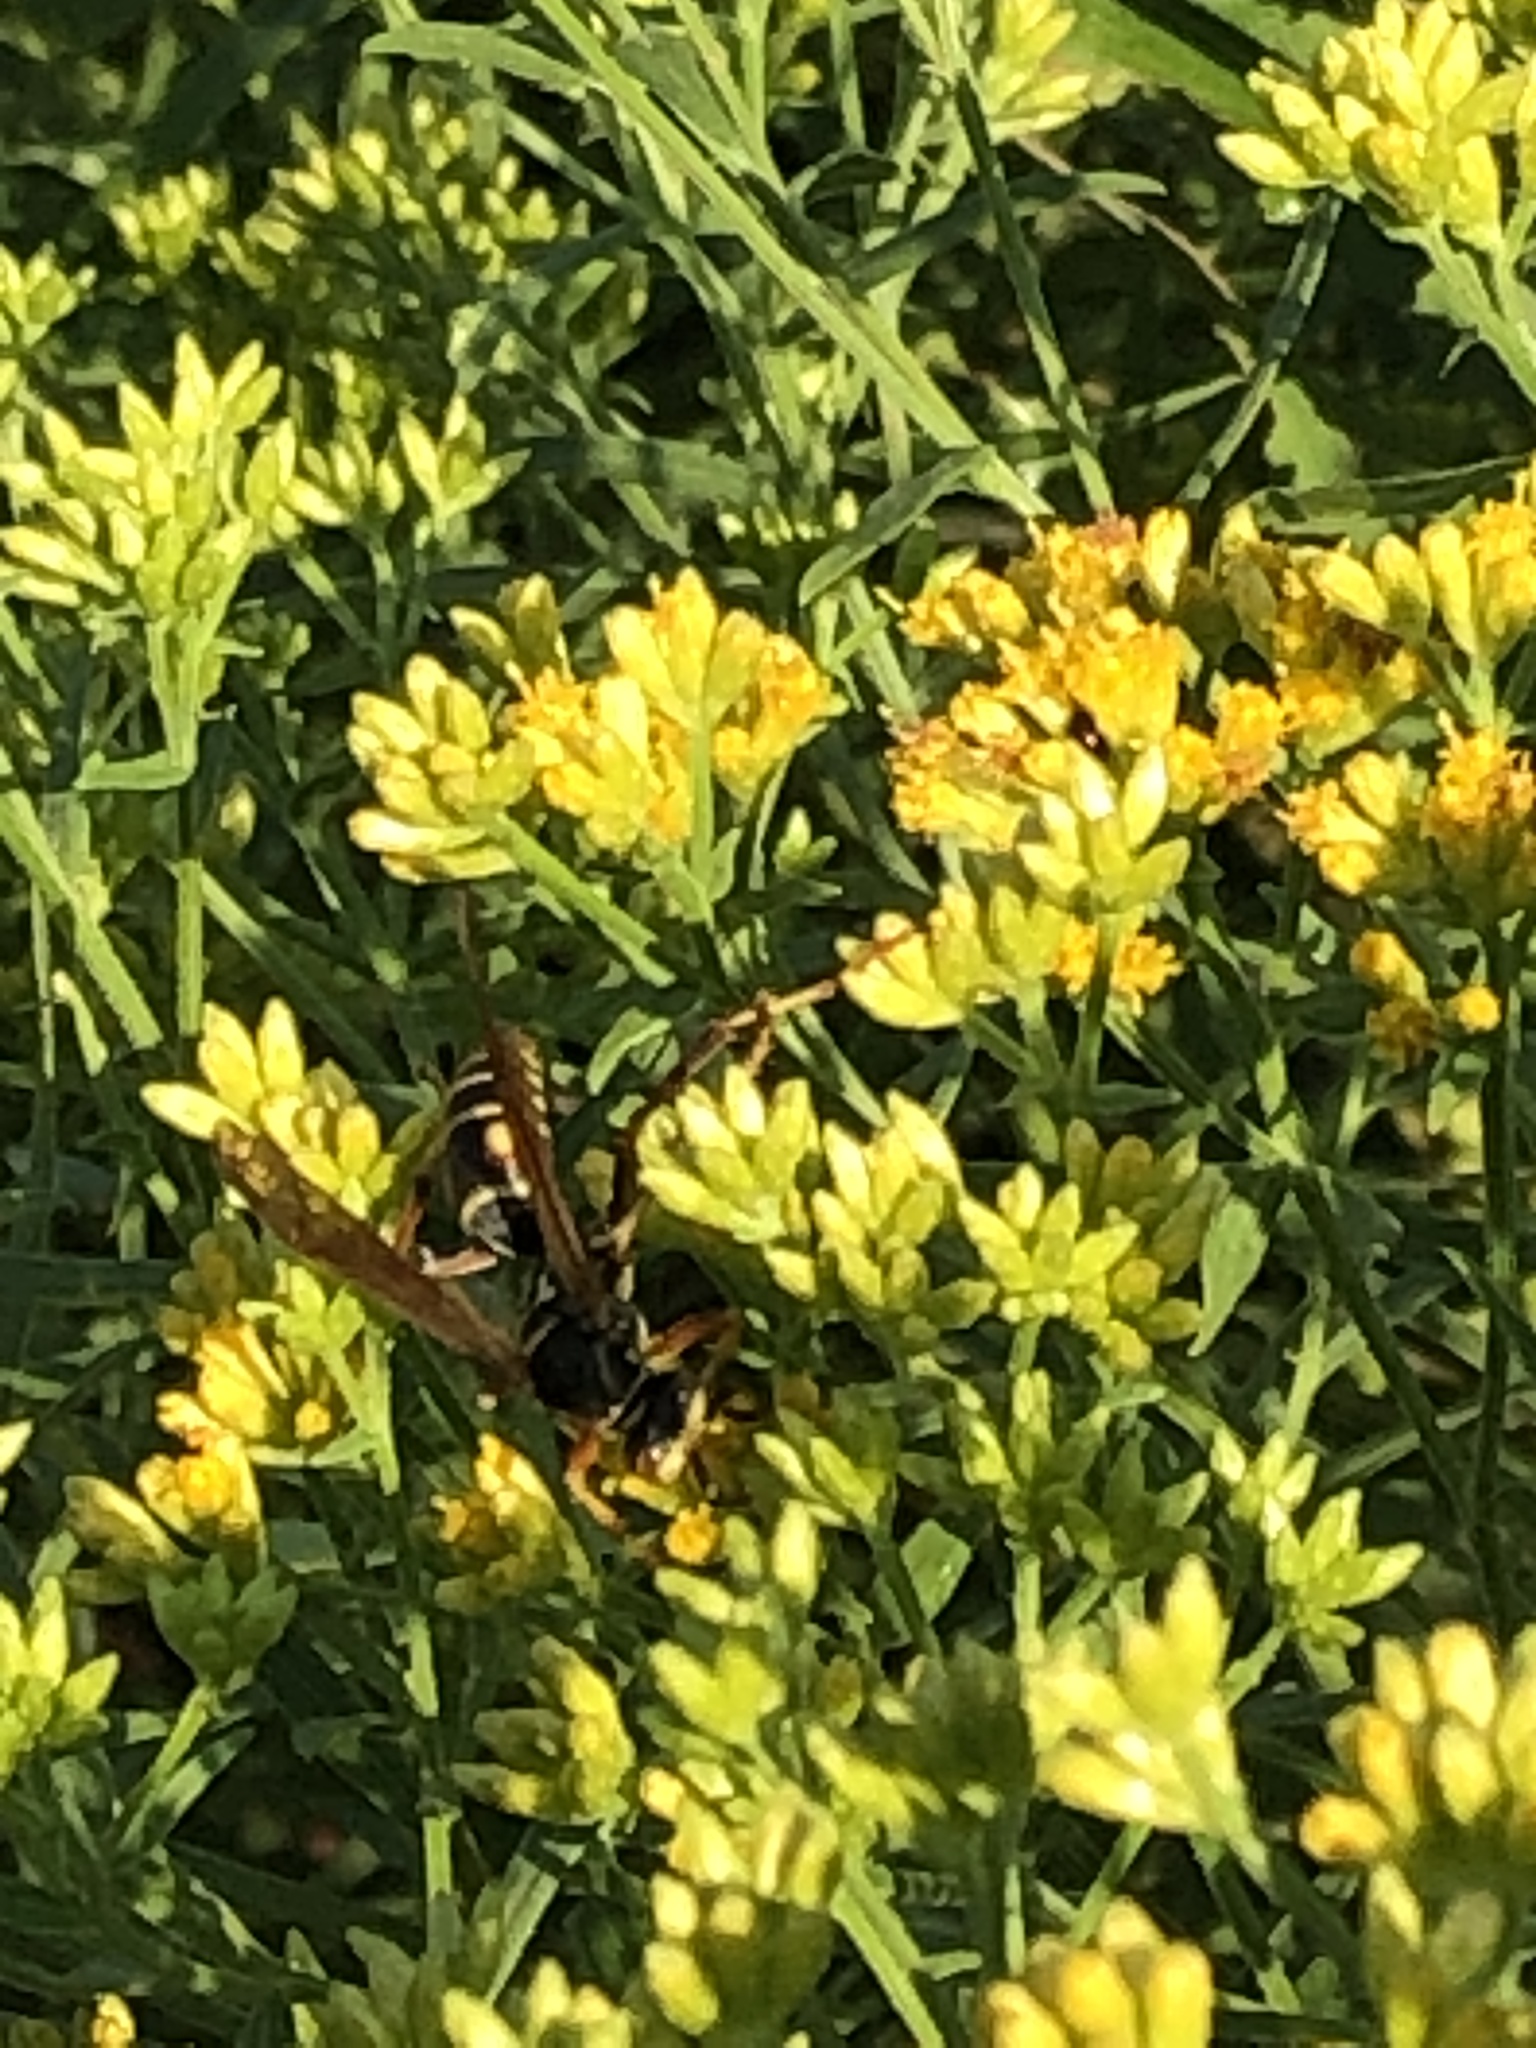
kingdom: Animalia
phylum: Arthropoda
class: Insecta
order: Hymenoptera
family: Eumenidae
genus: Polistes
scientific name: Polistes fuscatus
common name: Dark paper wasp
